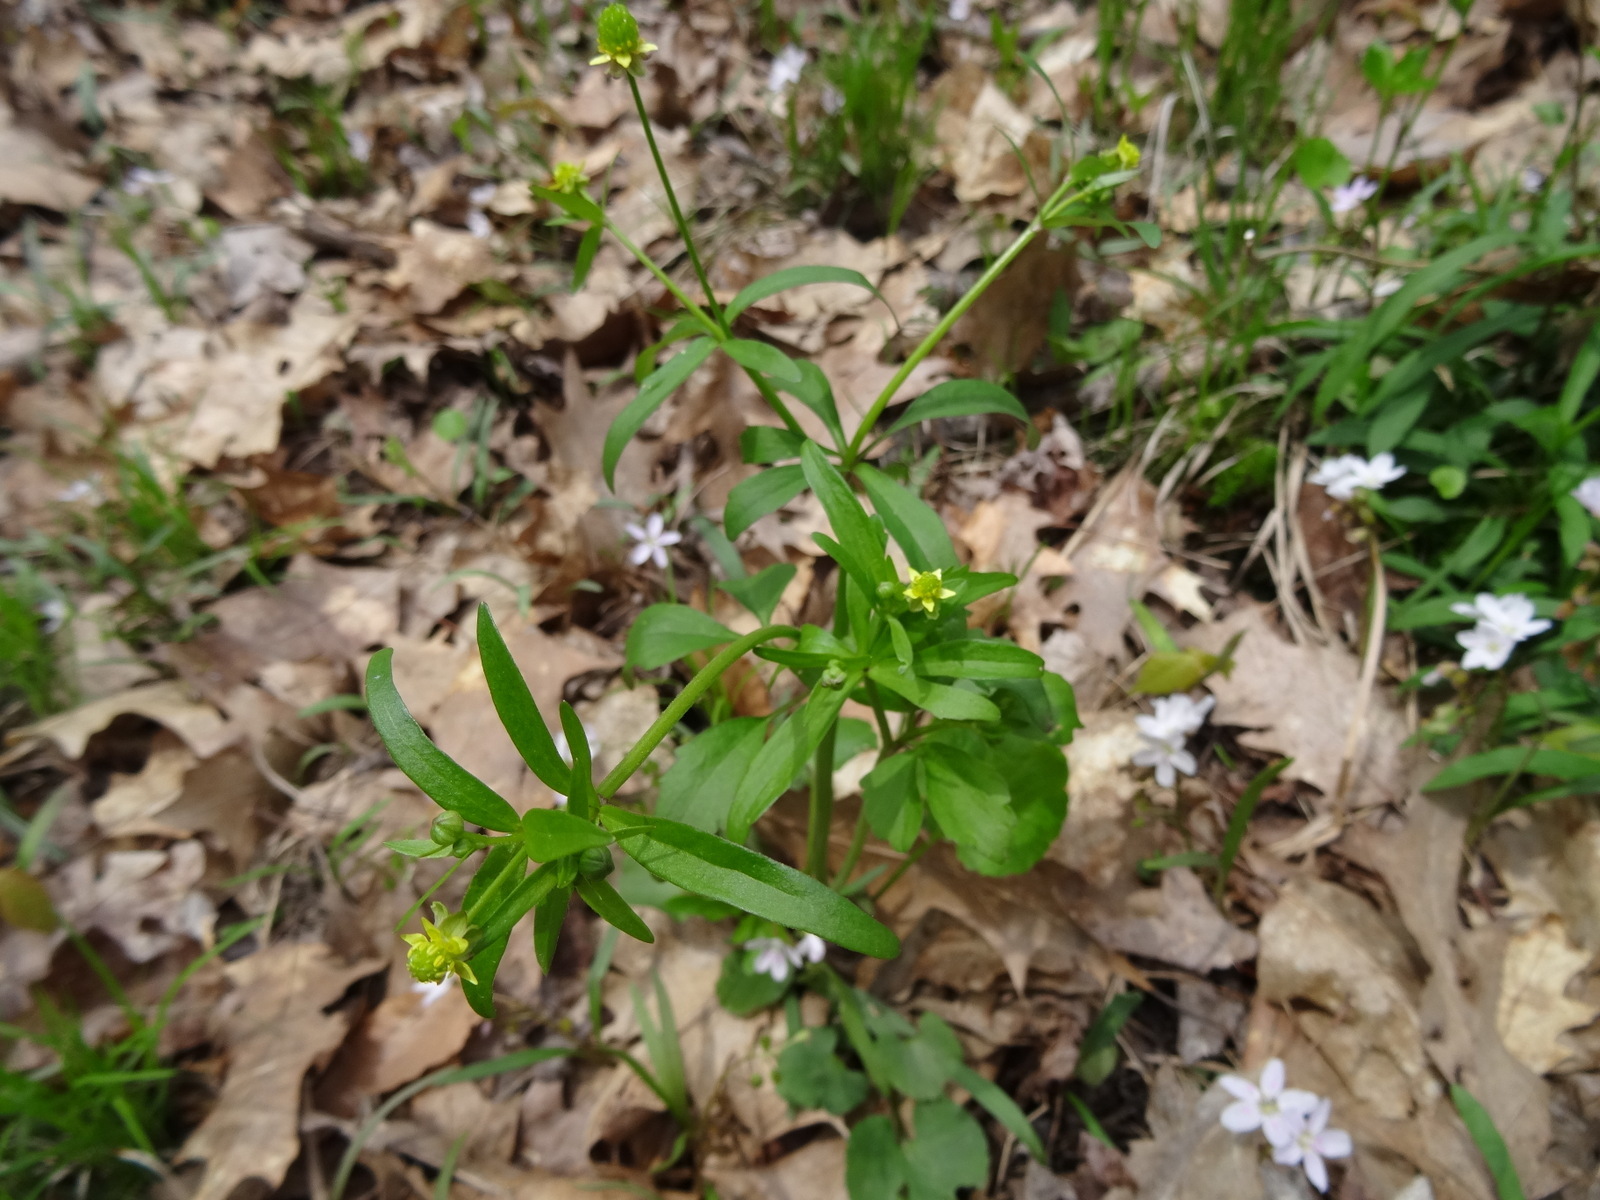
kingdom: Plantae
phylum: Tracheophyta
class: Magnoliopsida
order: Ranunculales
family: Ranunculaceae
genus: Ranunculus
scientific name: Ranunculus abortivus
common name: Early wood buttercup
